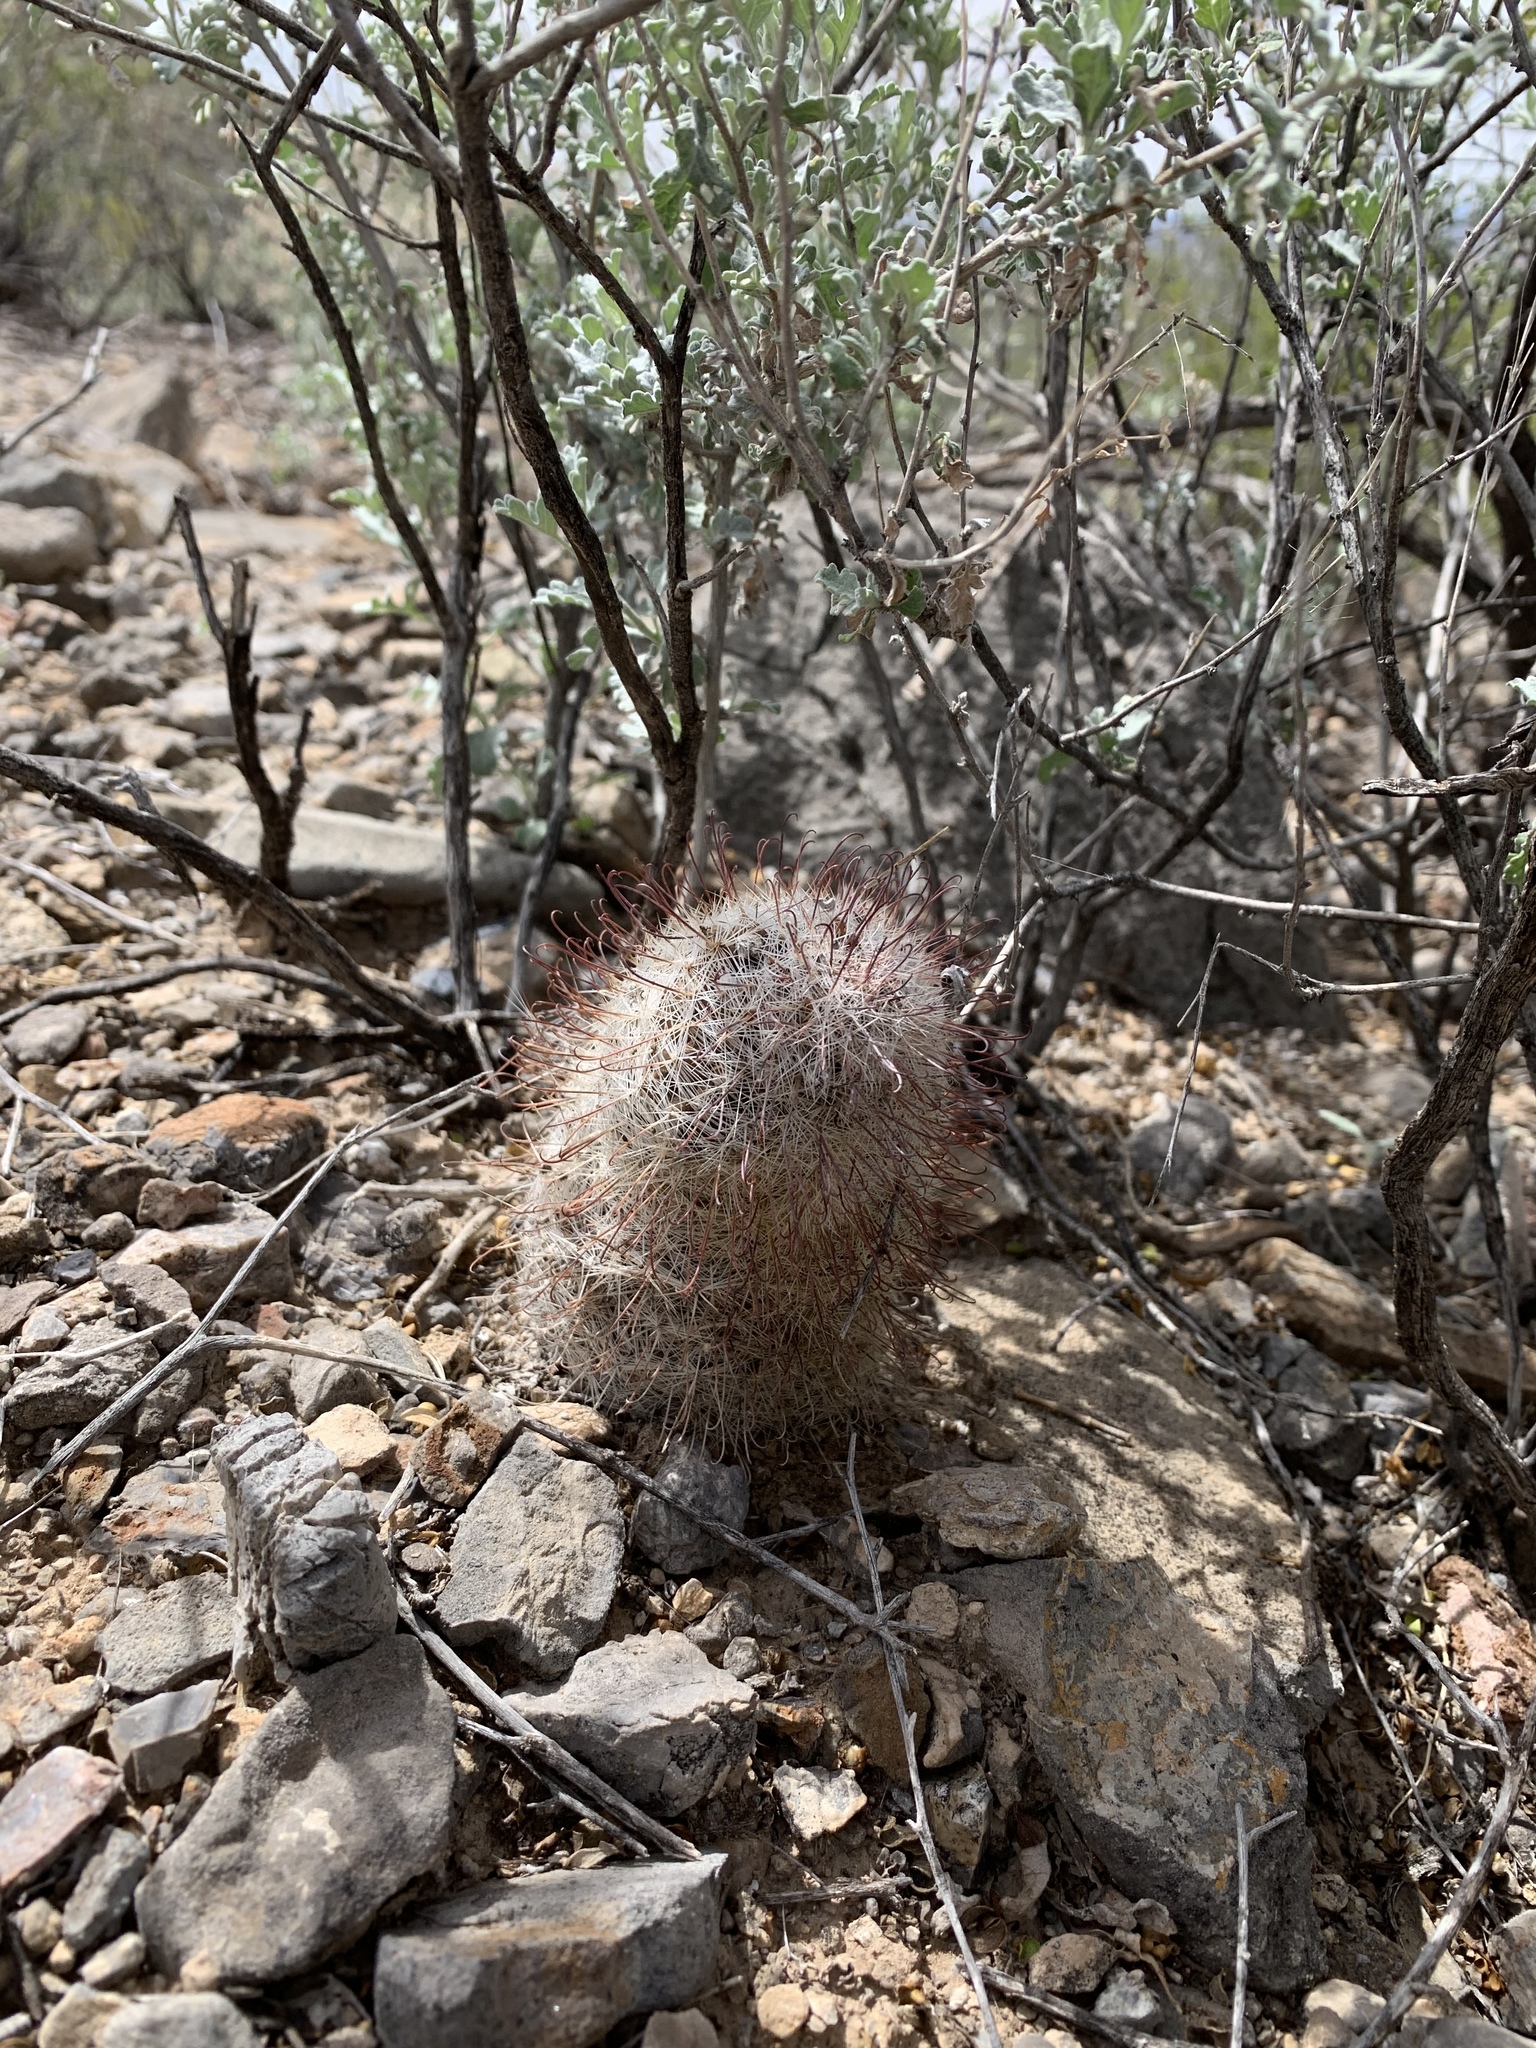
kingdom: Plantae
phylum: Tracheophyta
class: Magnoliopsida
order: Caryophyllales
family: Cactaceae
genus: Cochemiea
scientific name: Cochemiea grahamii
